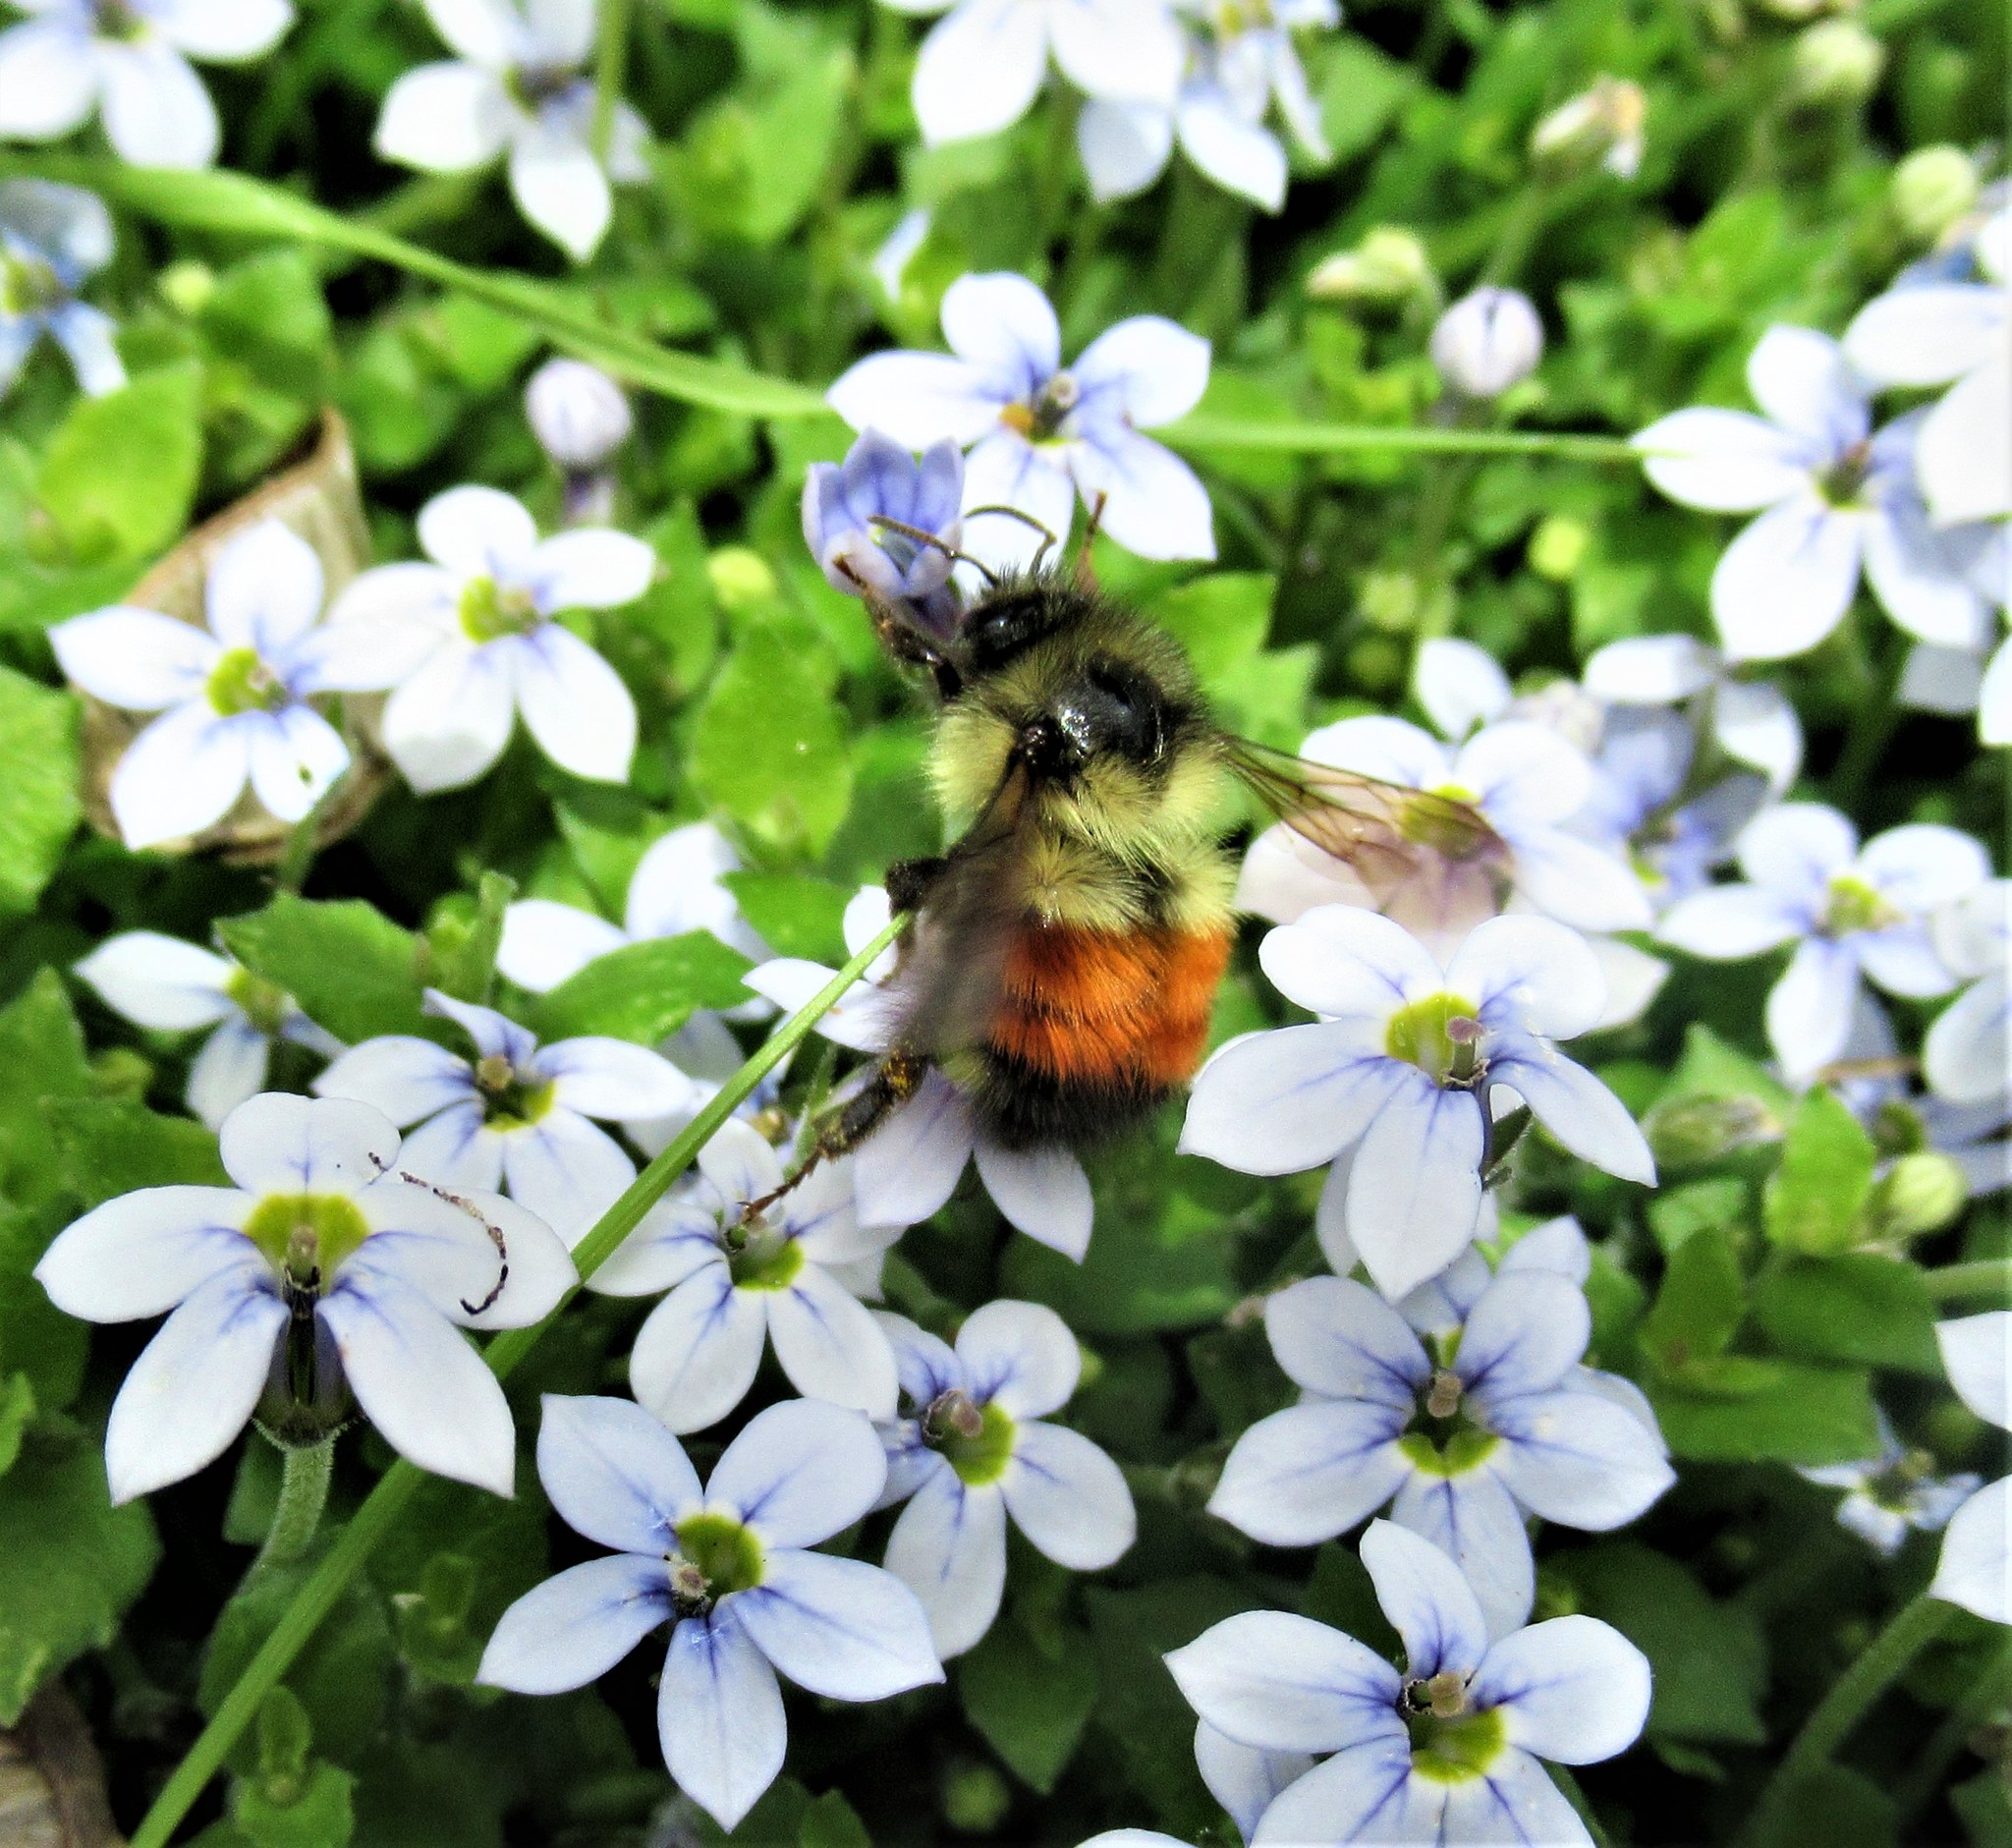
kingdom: Animalia
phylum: Arthropoda
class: Insecta
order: Hymenoptera
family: Apidae
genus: Bombus
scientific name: Bombus melanopygus
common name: Black tail bumble bee
